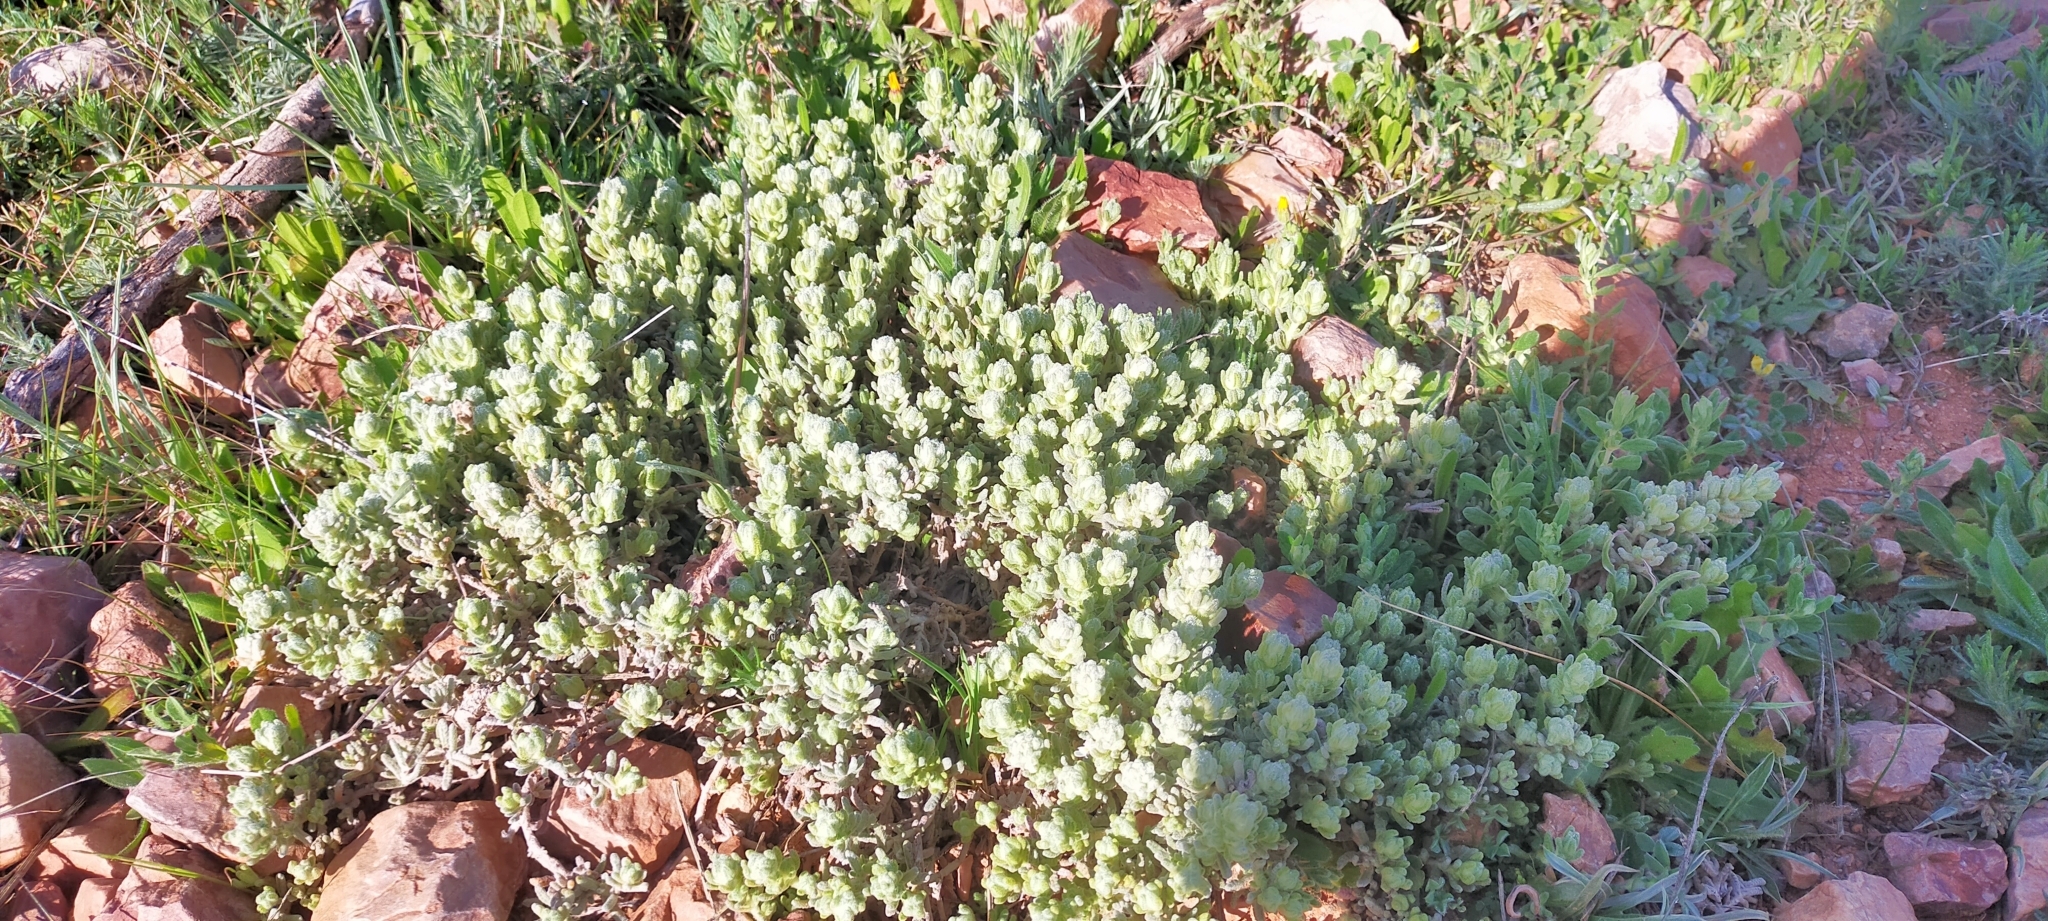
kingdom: Plantae
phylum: Tracheophyta
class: Magnoliopsida
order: Lamiales
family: Lamiaceae
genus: Teucrium
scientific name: Teucrium gnaphalodes
